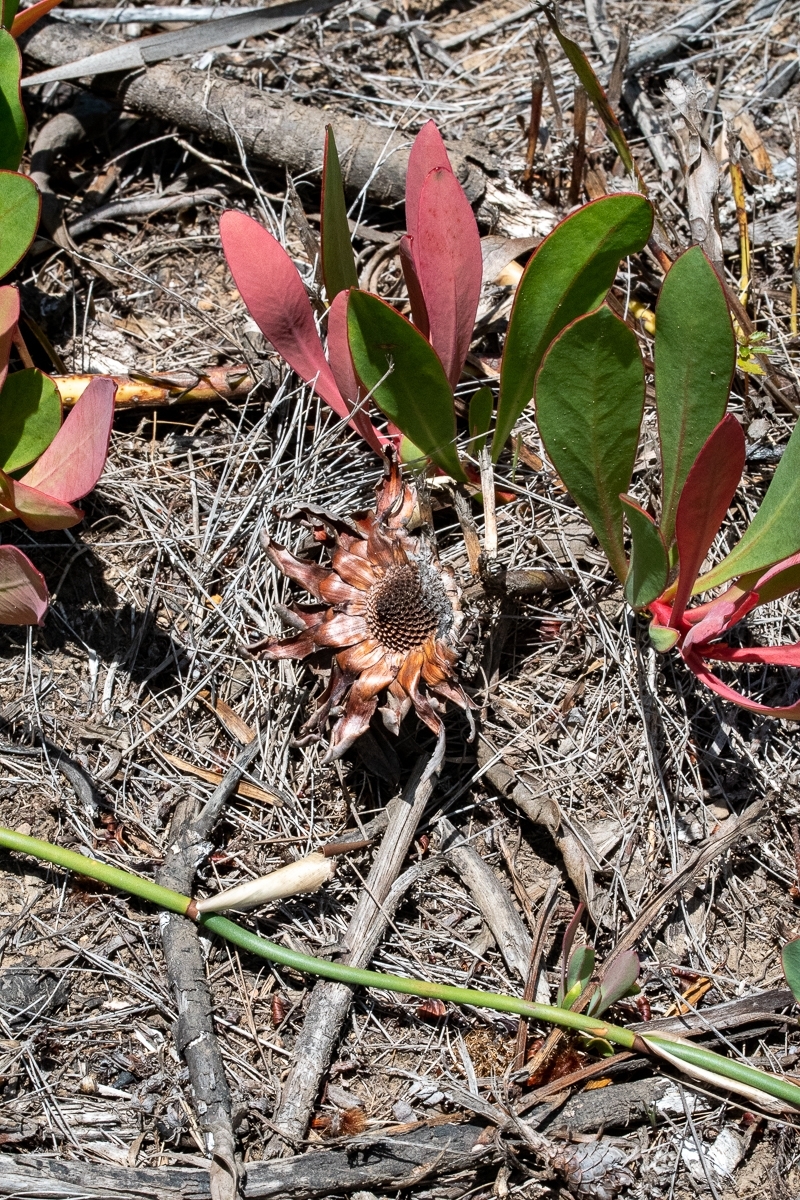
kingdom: Plantae
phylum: Tracheophyta
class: Magnoliopsida
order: Proteales
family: Proteaceae
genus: Protea
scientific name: Protea acaulos
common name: Common ground sugarbush
